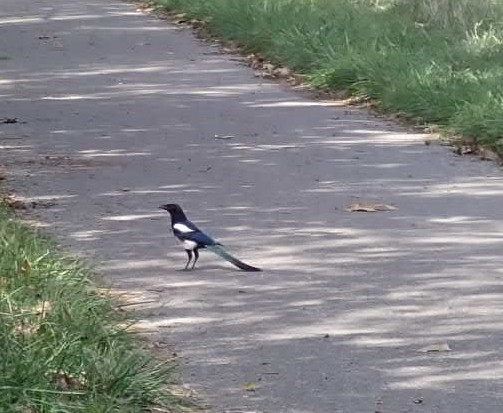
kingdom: Animalia
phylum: Chordata
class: Aves
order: Passeriformes
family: Corvidae
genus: Pica
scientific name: Pica pica
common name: Eurasian magpie
